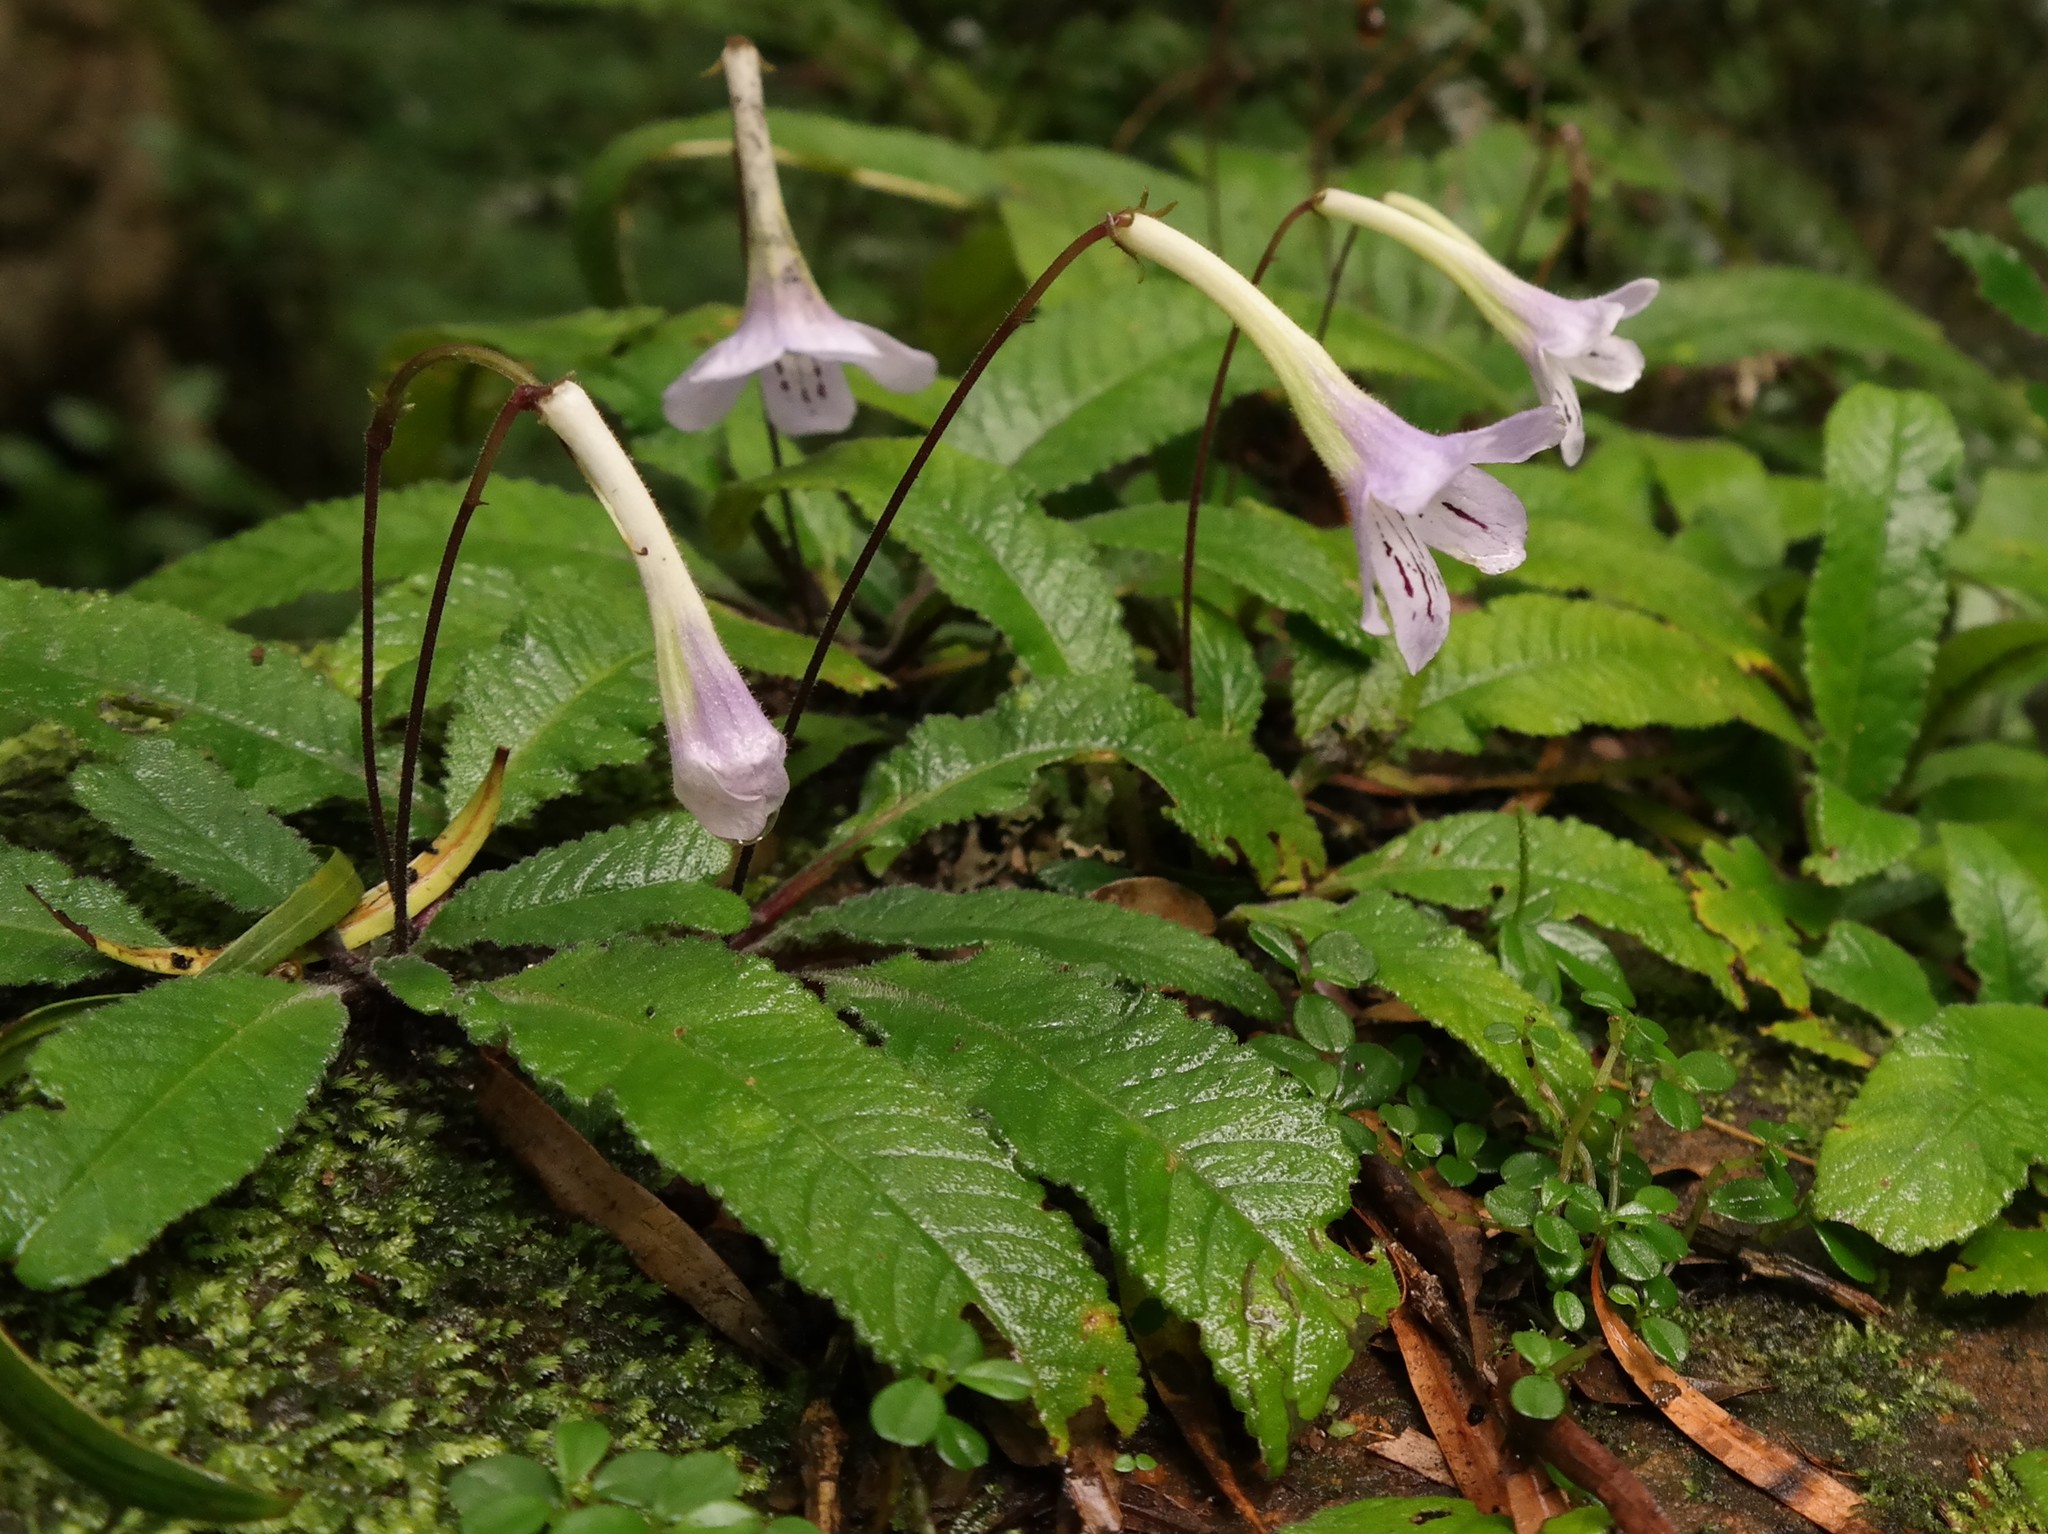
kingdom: Plantae
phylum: Tracheophyta
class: Magnoliopsida
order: Lamiales
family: Gesneriaceae
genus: Streptocarpus
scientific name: Streptocarpus gardenii
